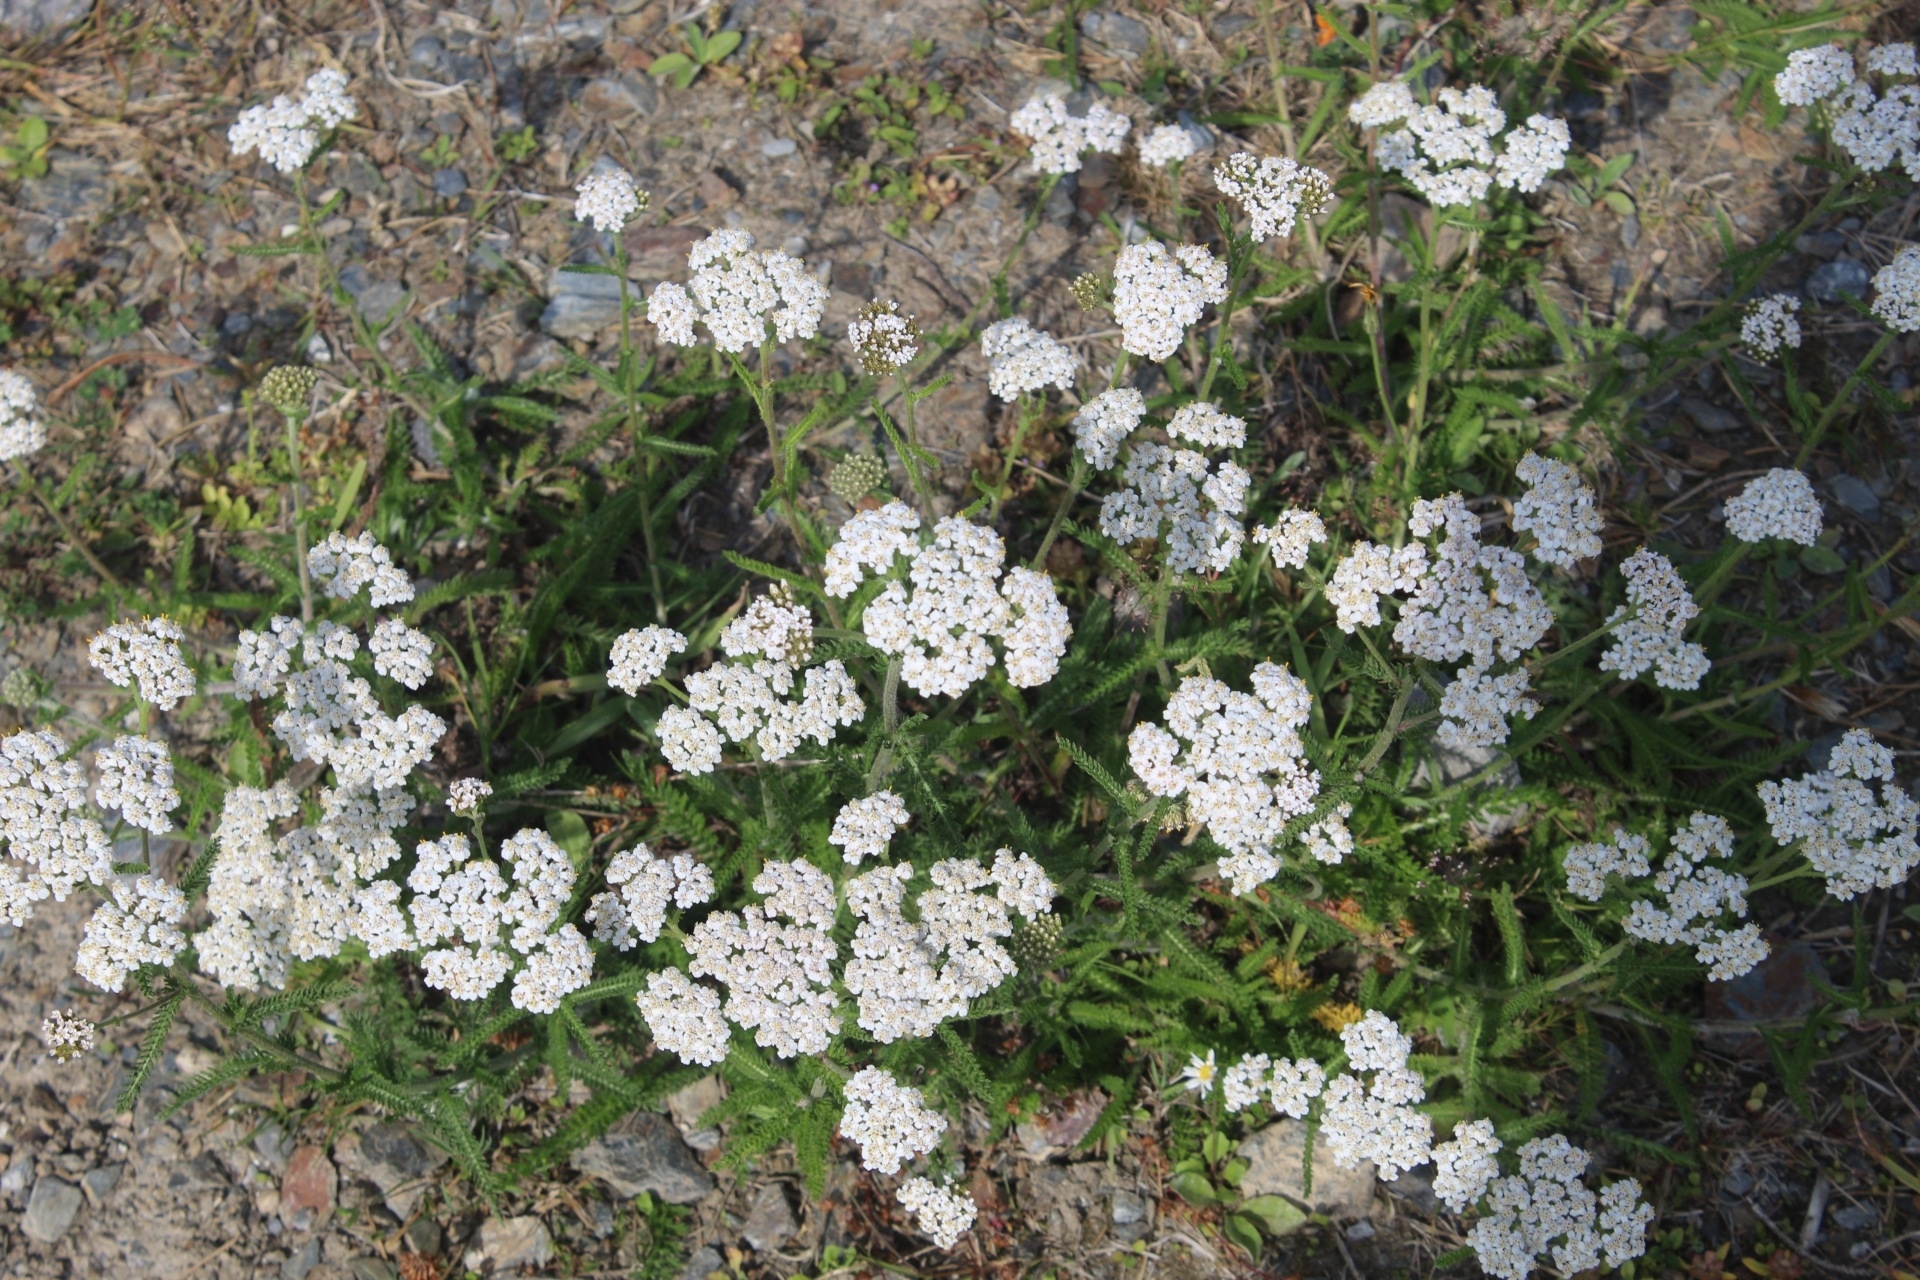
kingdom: Plantae
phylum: Tracheophyta
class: Magnoliopsida
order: Asterales
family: Asteraceae
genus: Achillea
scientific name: Achillea millefolium
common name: Yarrow
